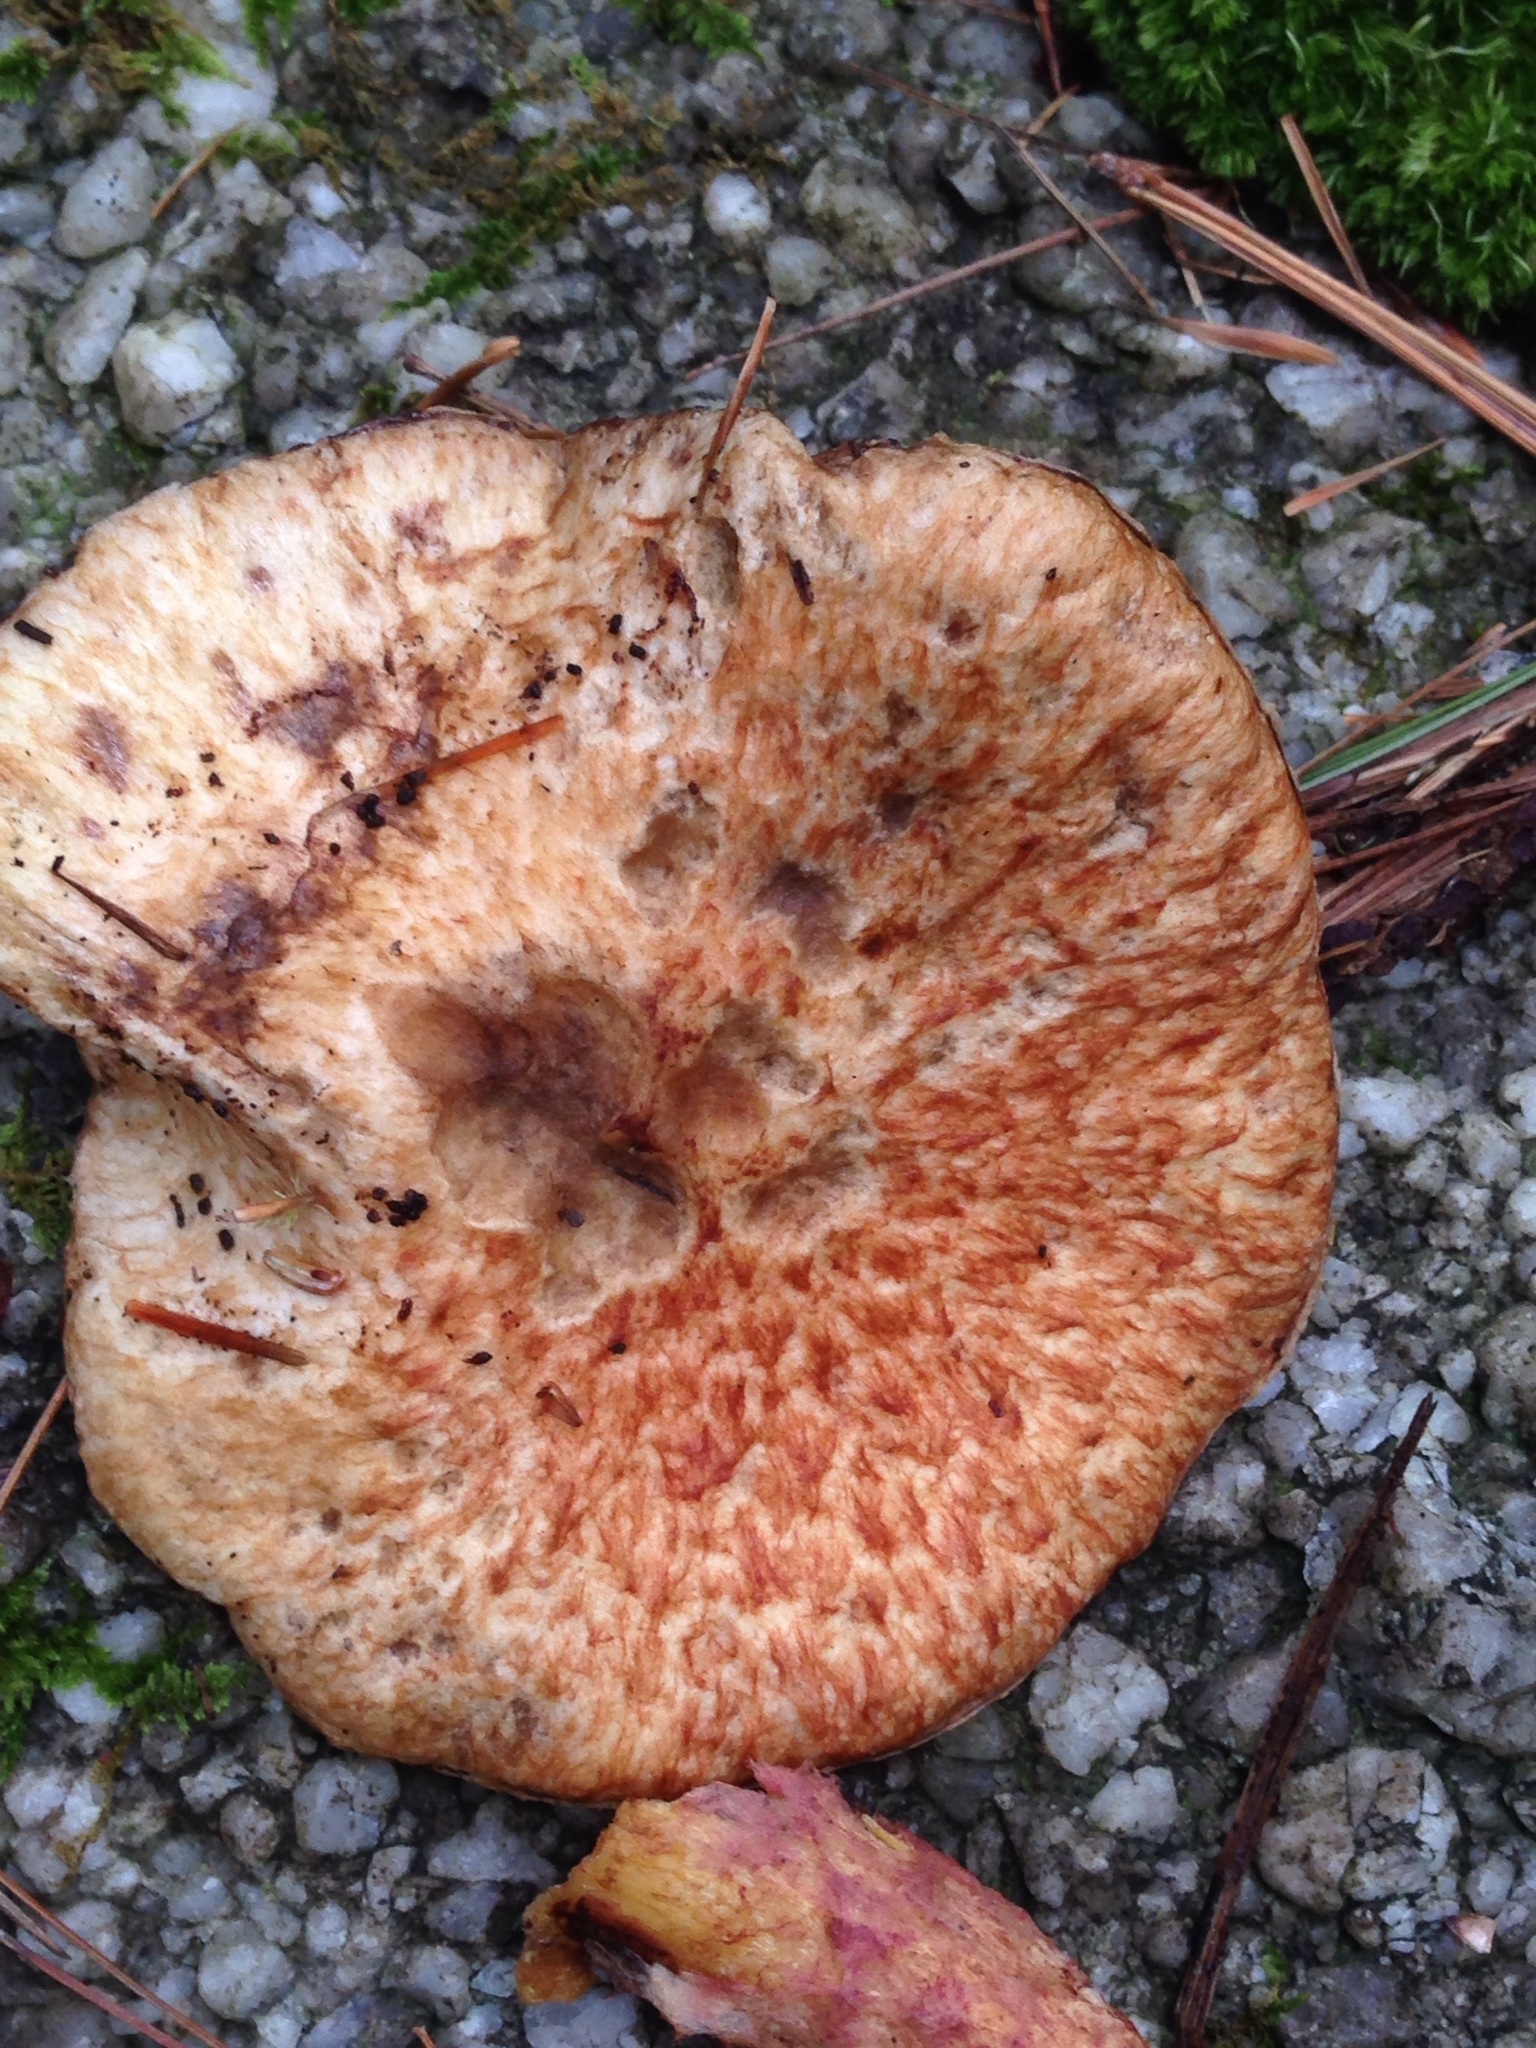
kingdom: Fungi
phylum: Basidiomycota
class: Agaricomycetes
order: Boletales
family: Suillaceae
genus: Suillus
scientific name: Suillus spraguei
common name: Painted suillus
